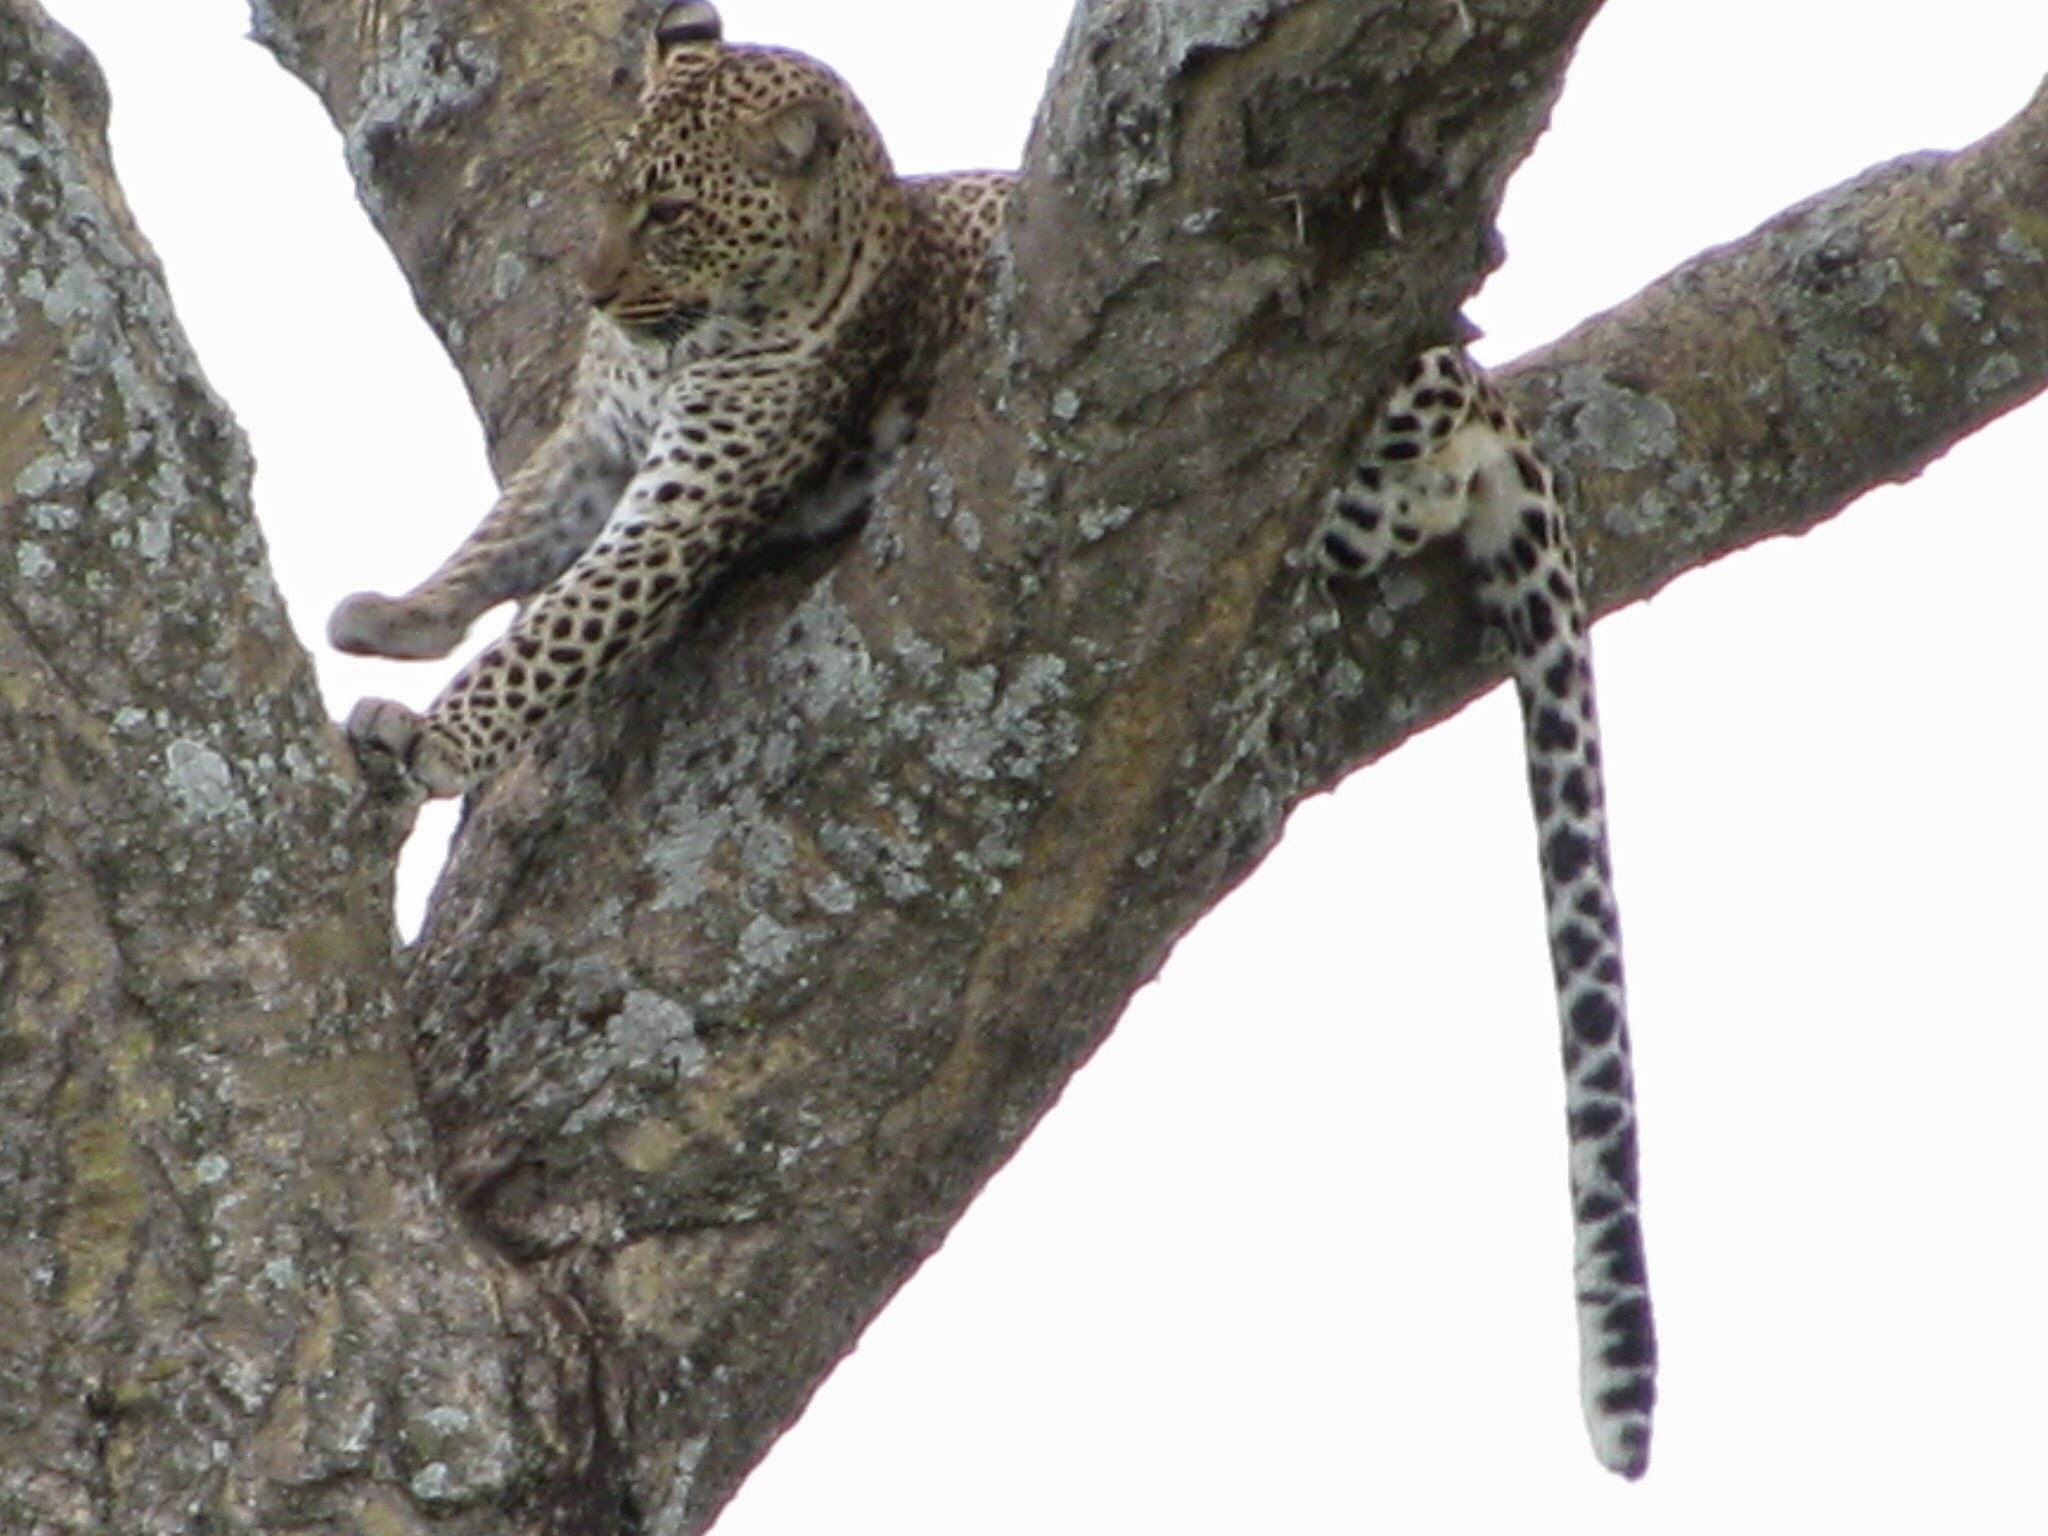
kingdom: Animalia
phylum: Chordata
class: Mammalia
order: Carnivora
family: Felidae
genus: Panthera
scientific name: Panthera pardus
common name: Leopard
